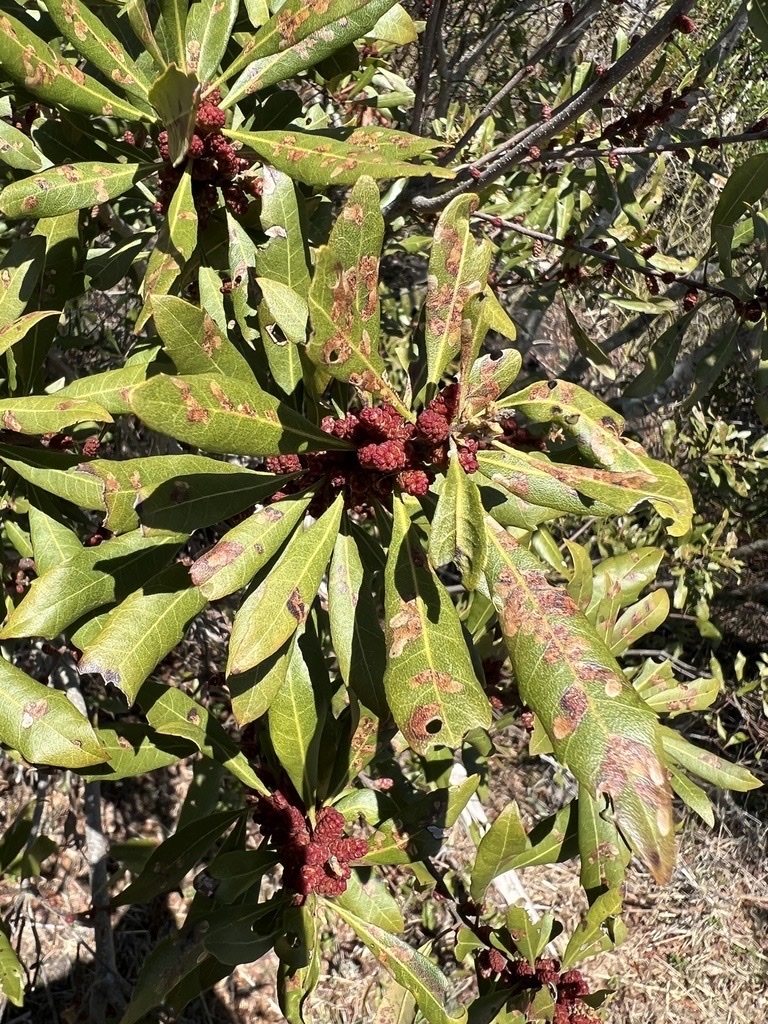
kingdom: Fungi
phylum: Ascomycota
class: Sordariomycetes
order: Glomerellales
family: Glomerellaceae
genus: Colletotrichum
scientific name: Colletotrichum acutatum
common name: Hakea gummosis fungus
